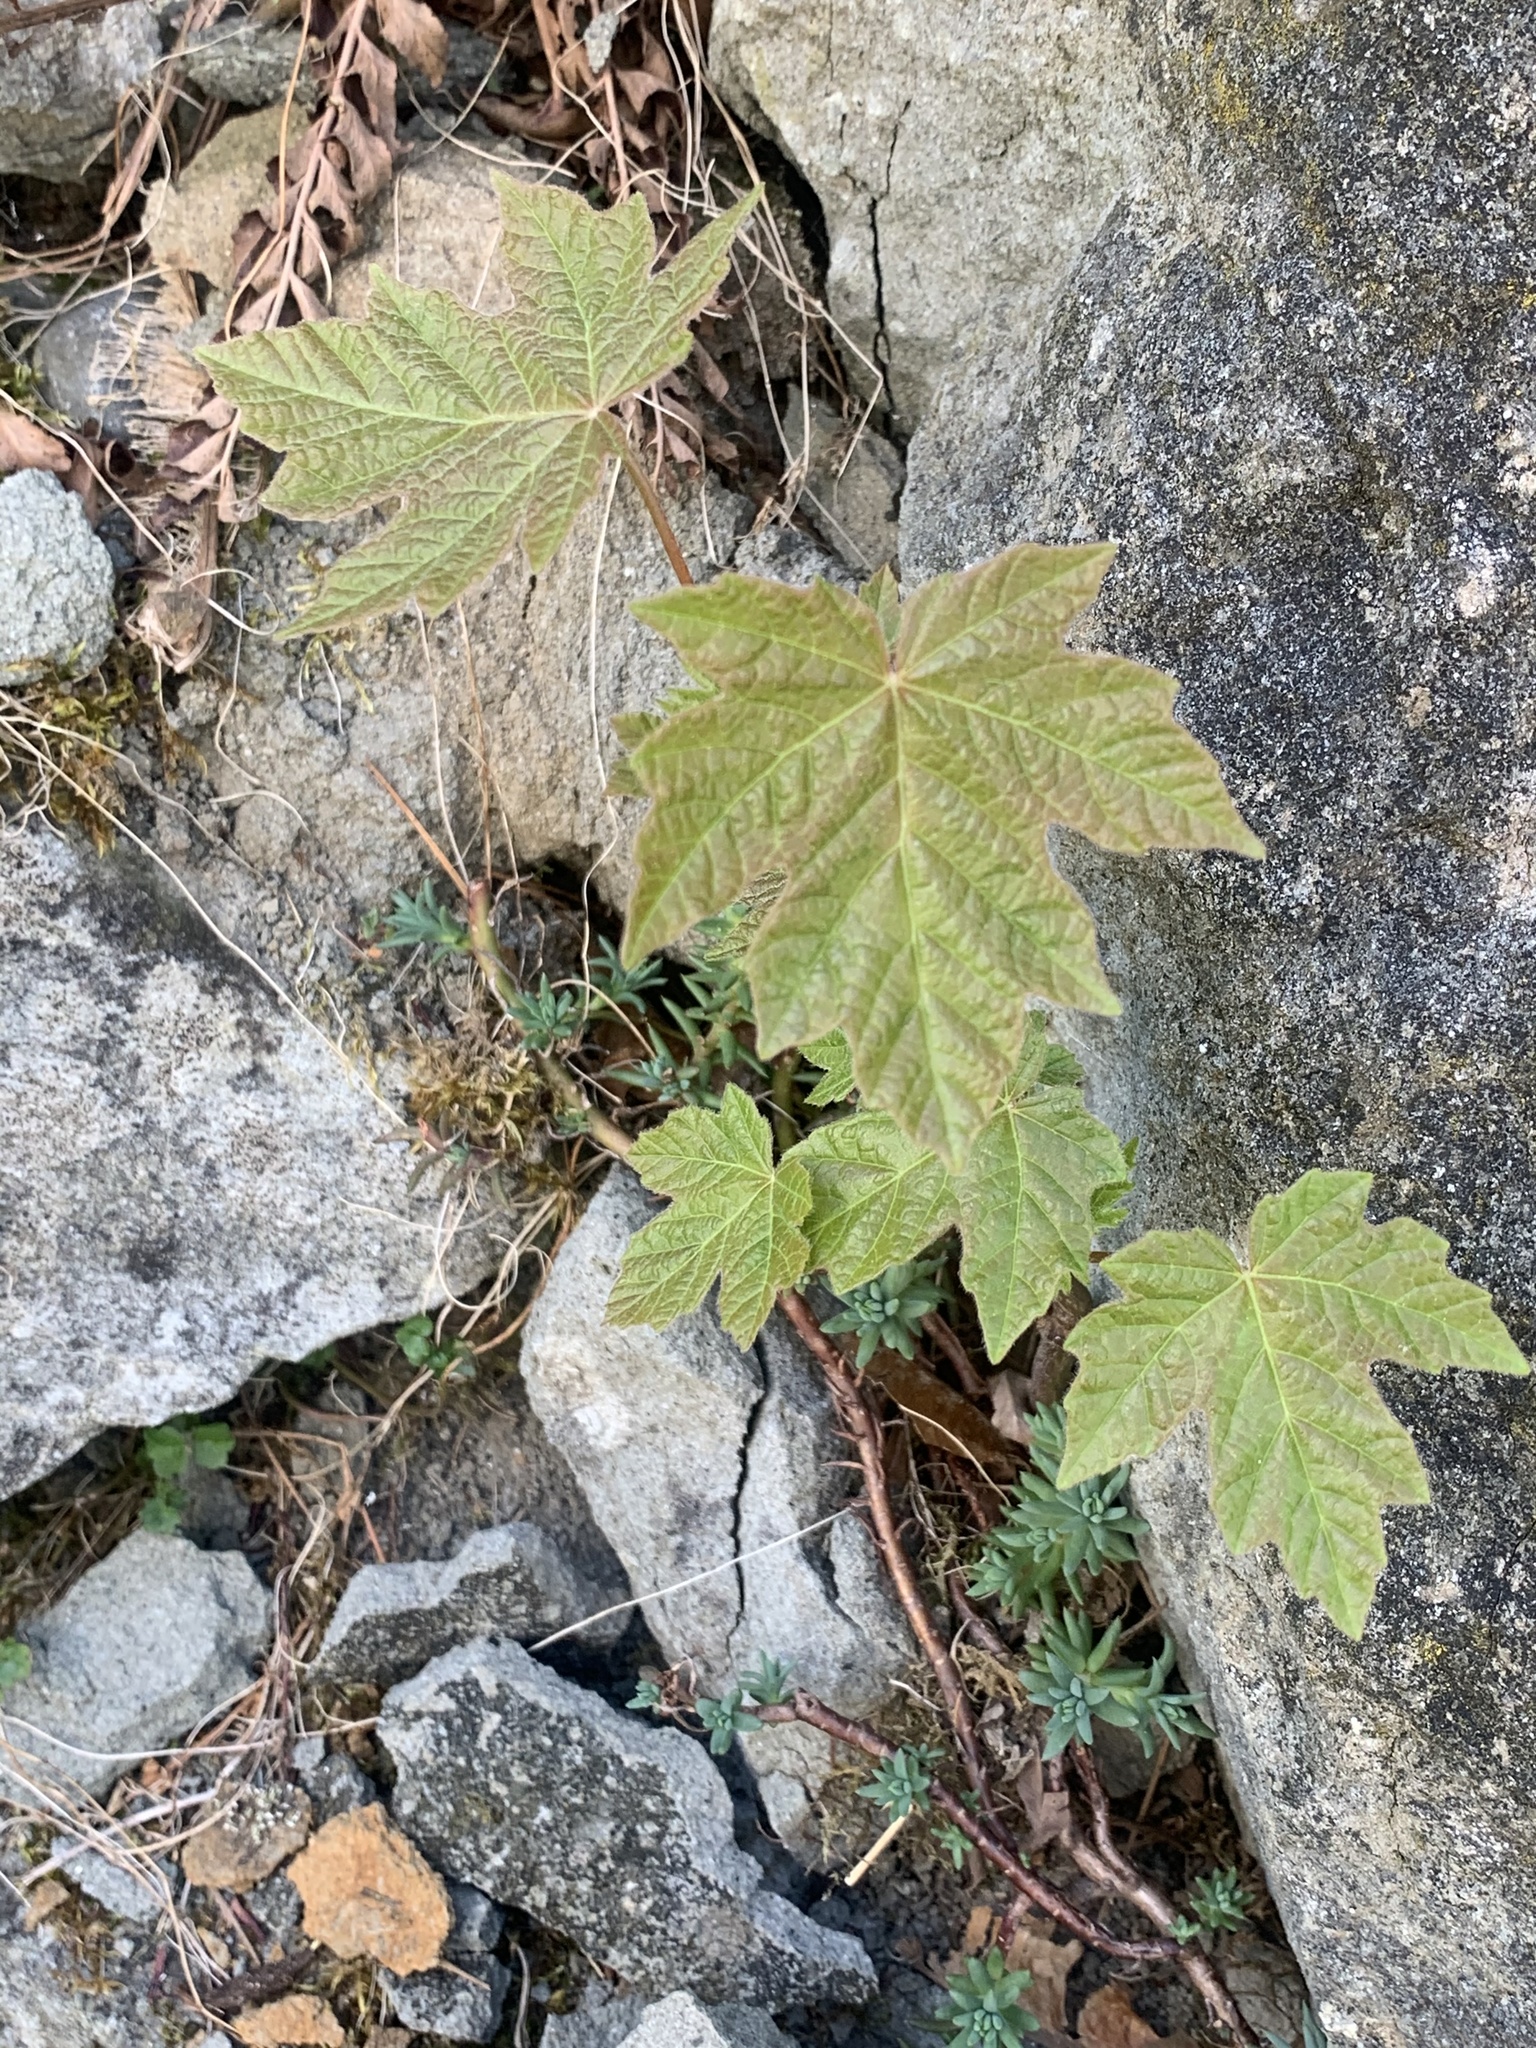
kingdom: Plantae
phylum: Tracheophyta
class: Magnoliopsida
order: Sapindales
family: Sapindaceae
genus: Acer
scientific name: Acer macrophyllum
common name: Oregon maple
